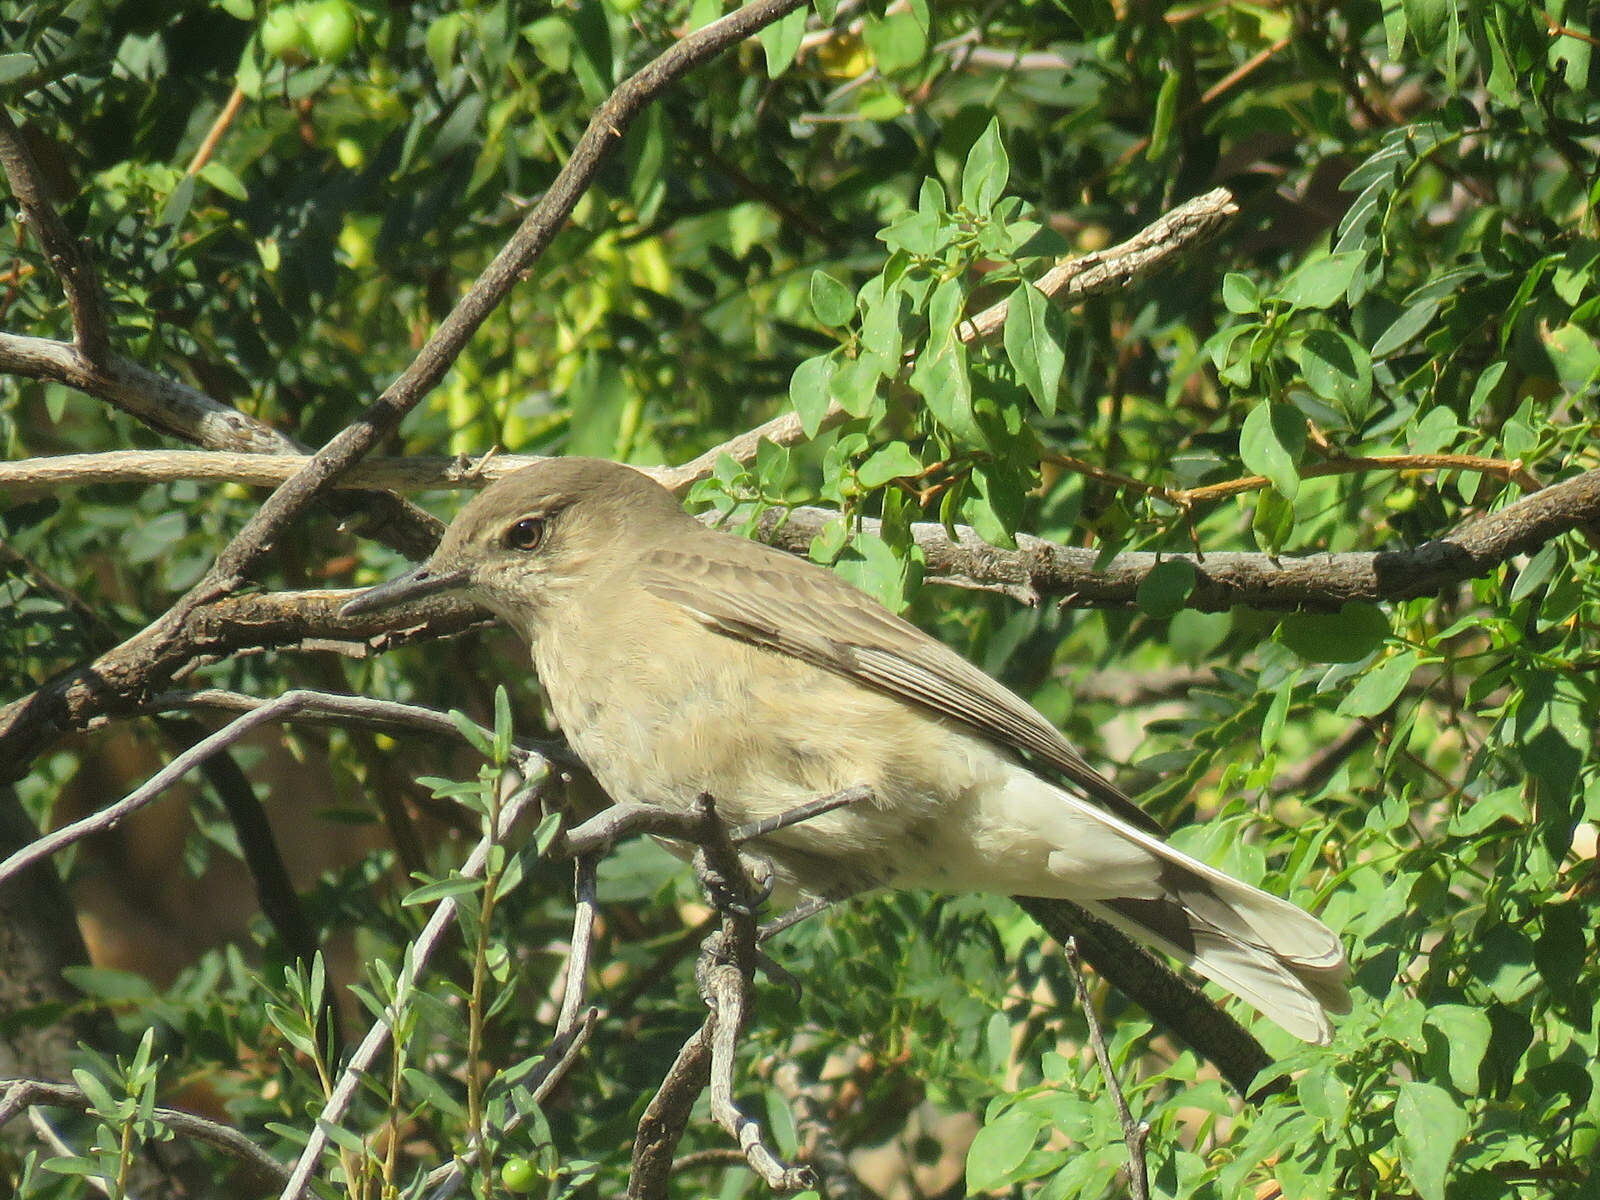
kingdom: Animalia
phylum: Chordata
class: Aves
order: Passeriformes
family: Tyrannidae
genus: Agriornis
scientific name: Agriornis montanus
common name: Black-billed shrike-tyrant
